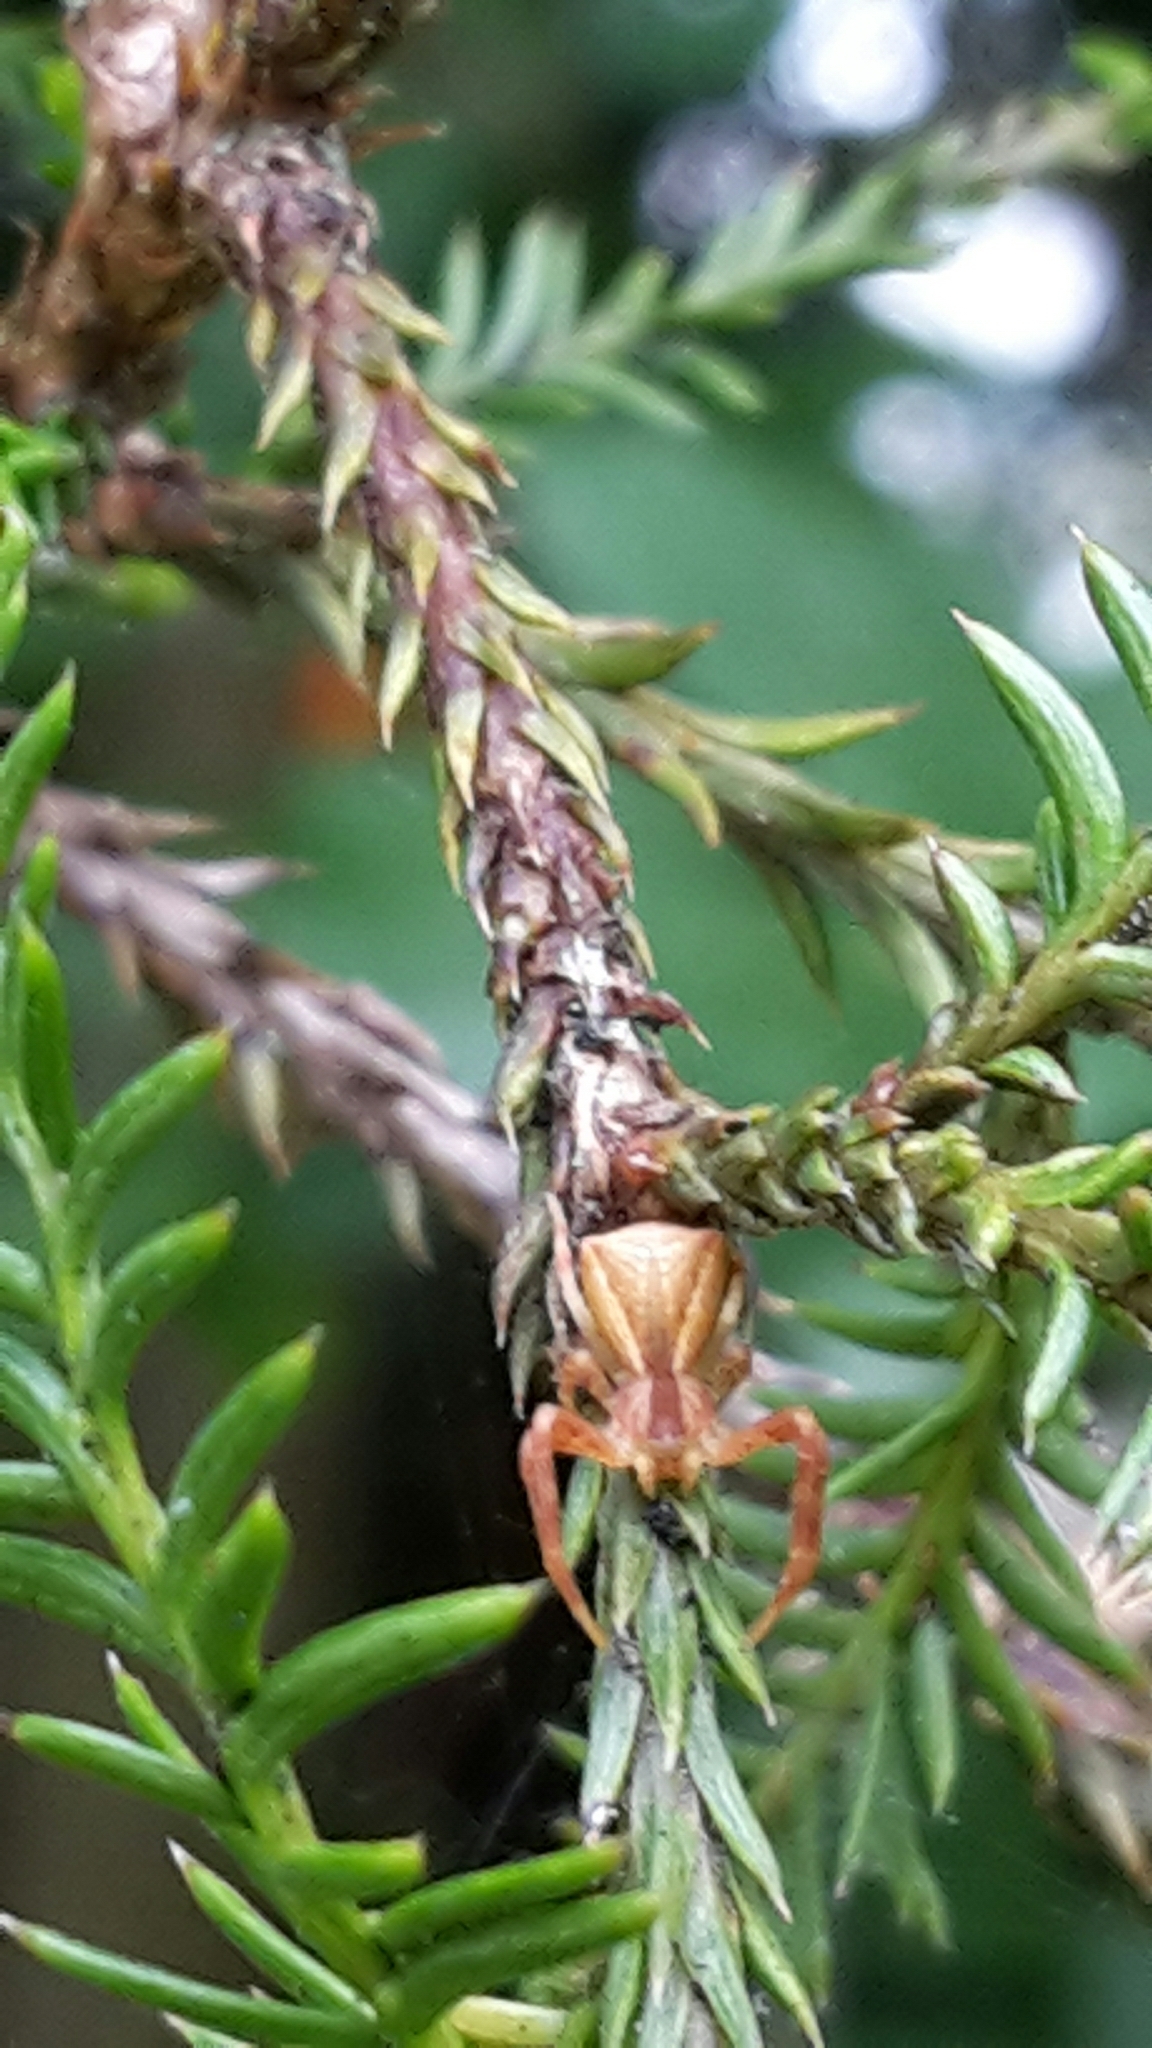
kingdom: Animalia
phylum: Arthropoda
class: Arachnida
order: Araneae
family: Thomisidae
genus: Sidymella
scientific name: Sidymella trapezia
